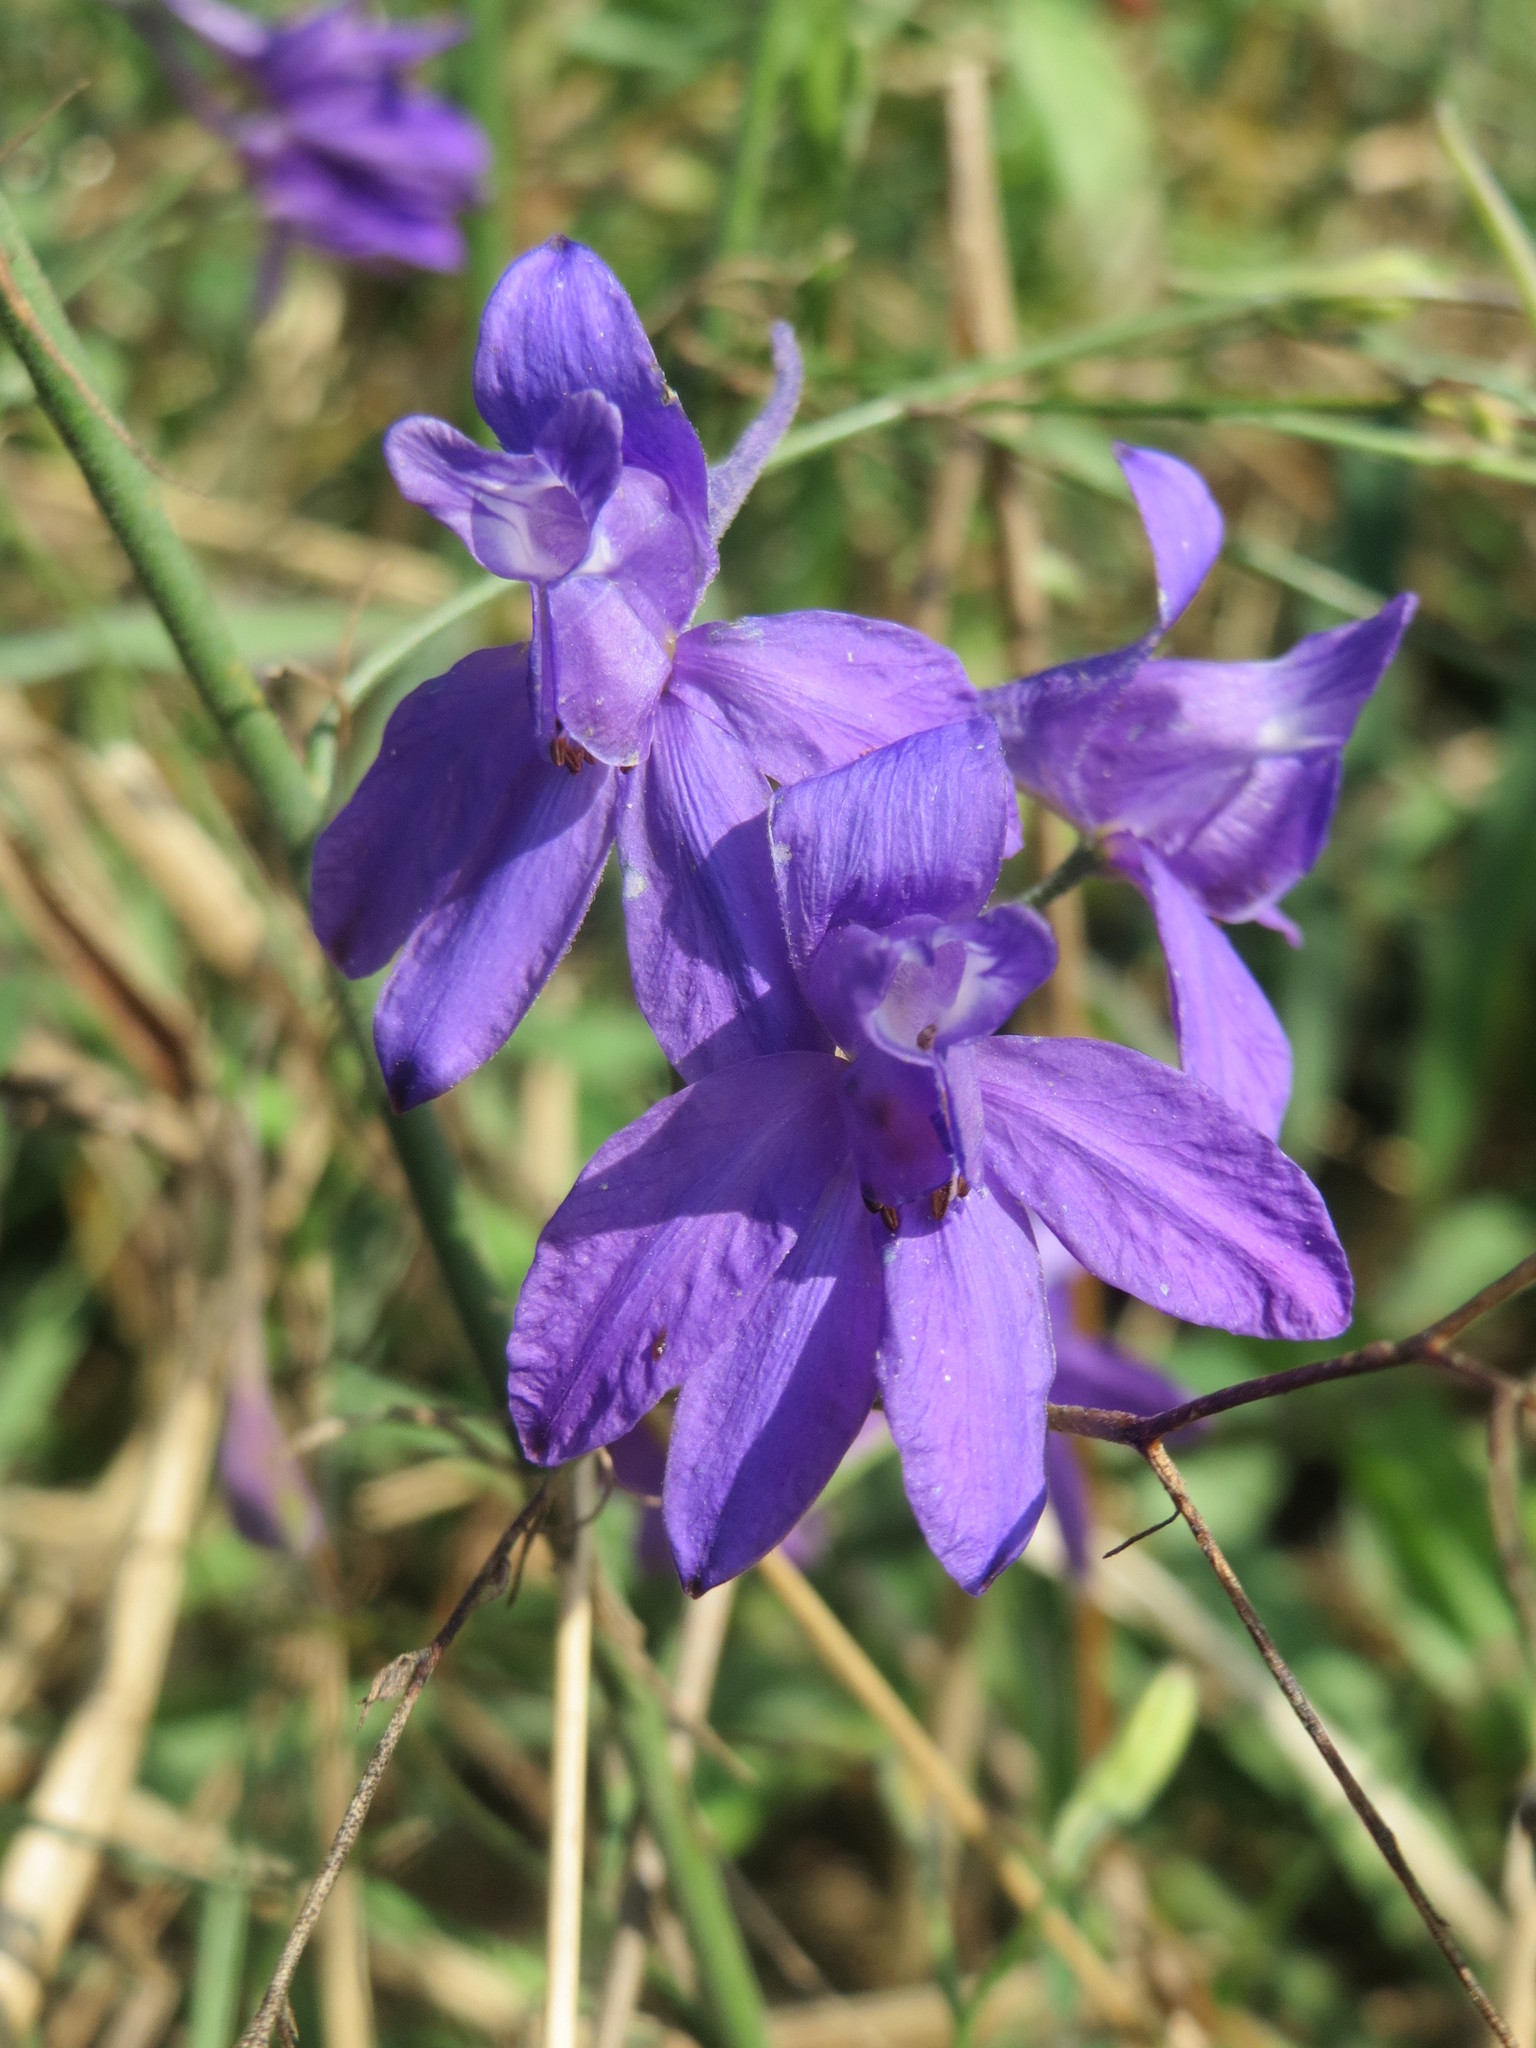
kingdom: Plantae
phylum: Tracheophyta
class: Magnoliopsida
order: Ranunculales
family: Ranunculaceae
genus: Delphinium
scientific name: Delphinium consolida
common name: Branching larkspur
